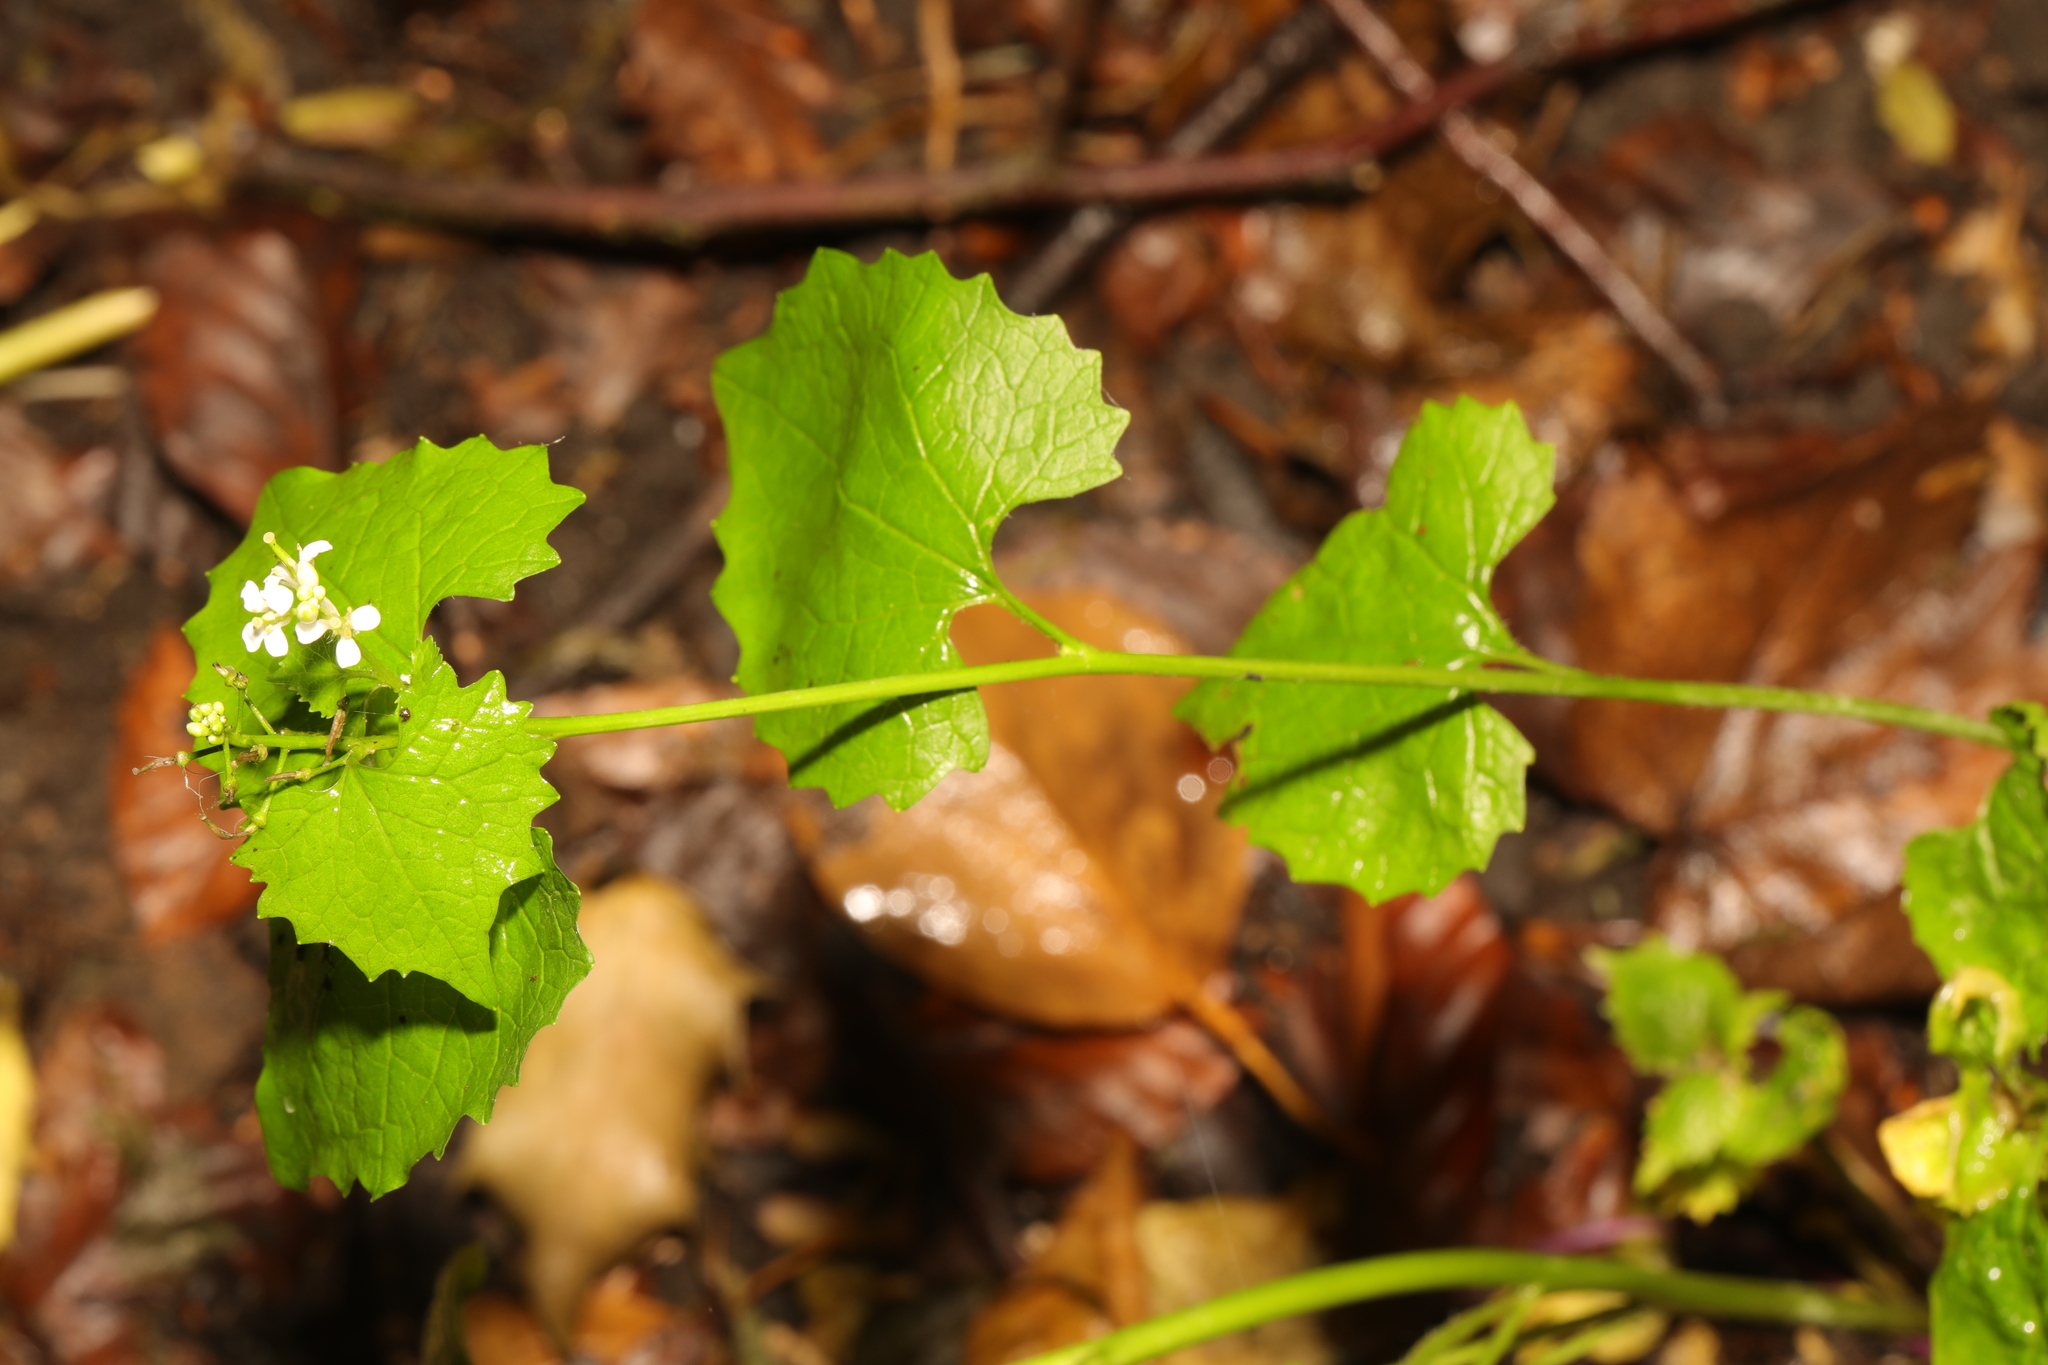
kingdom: Plantae
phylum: Tracheophyta
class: Magnoliopsida
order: Brassicales
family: Brassicaceae
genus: Alliaria
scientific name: Alliaria petiolata
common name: Garlic mustard
